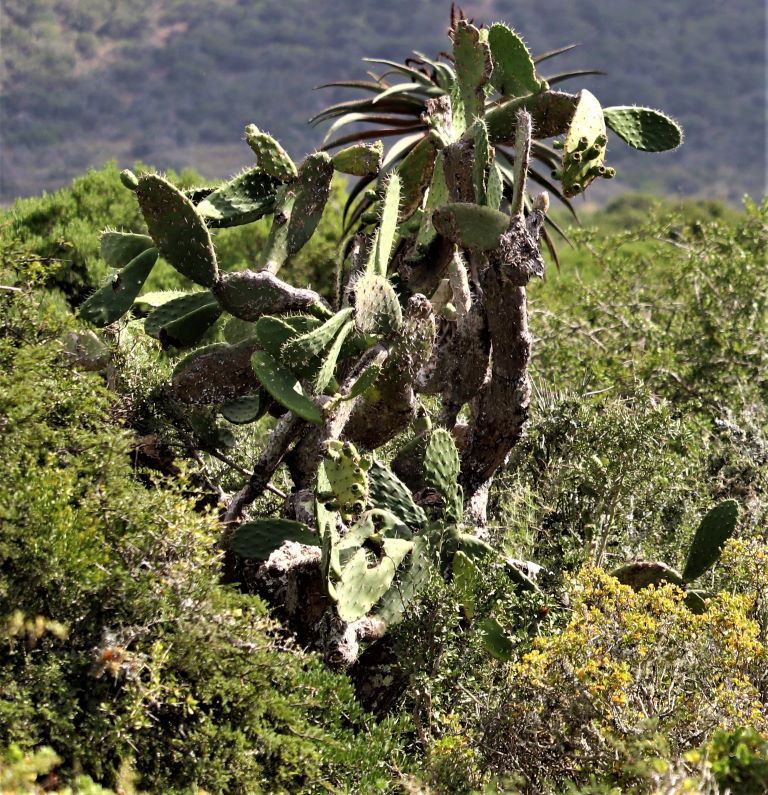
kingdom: Plantae
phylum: Tracheophyta
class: Magnoliopsida
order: Caryophyllales
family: Cactaceae
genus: Opuntia
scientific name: Opuntia ficus-indica
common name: Barbary fig
